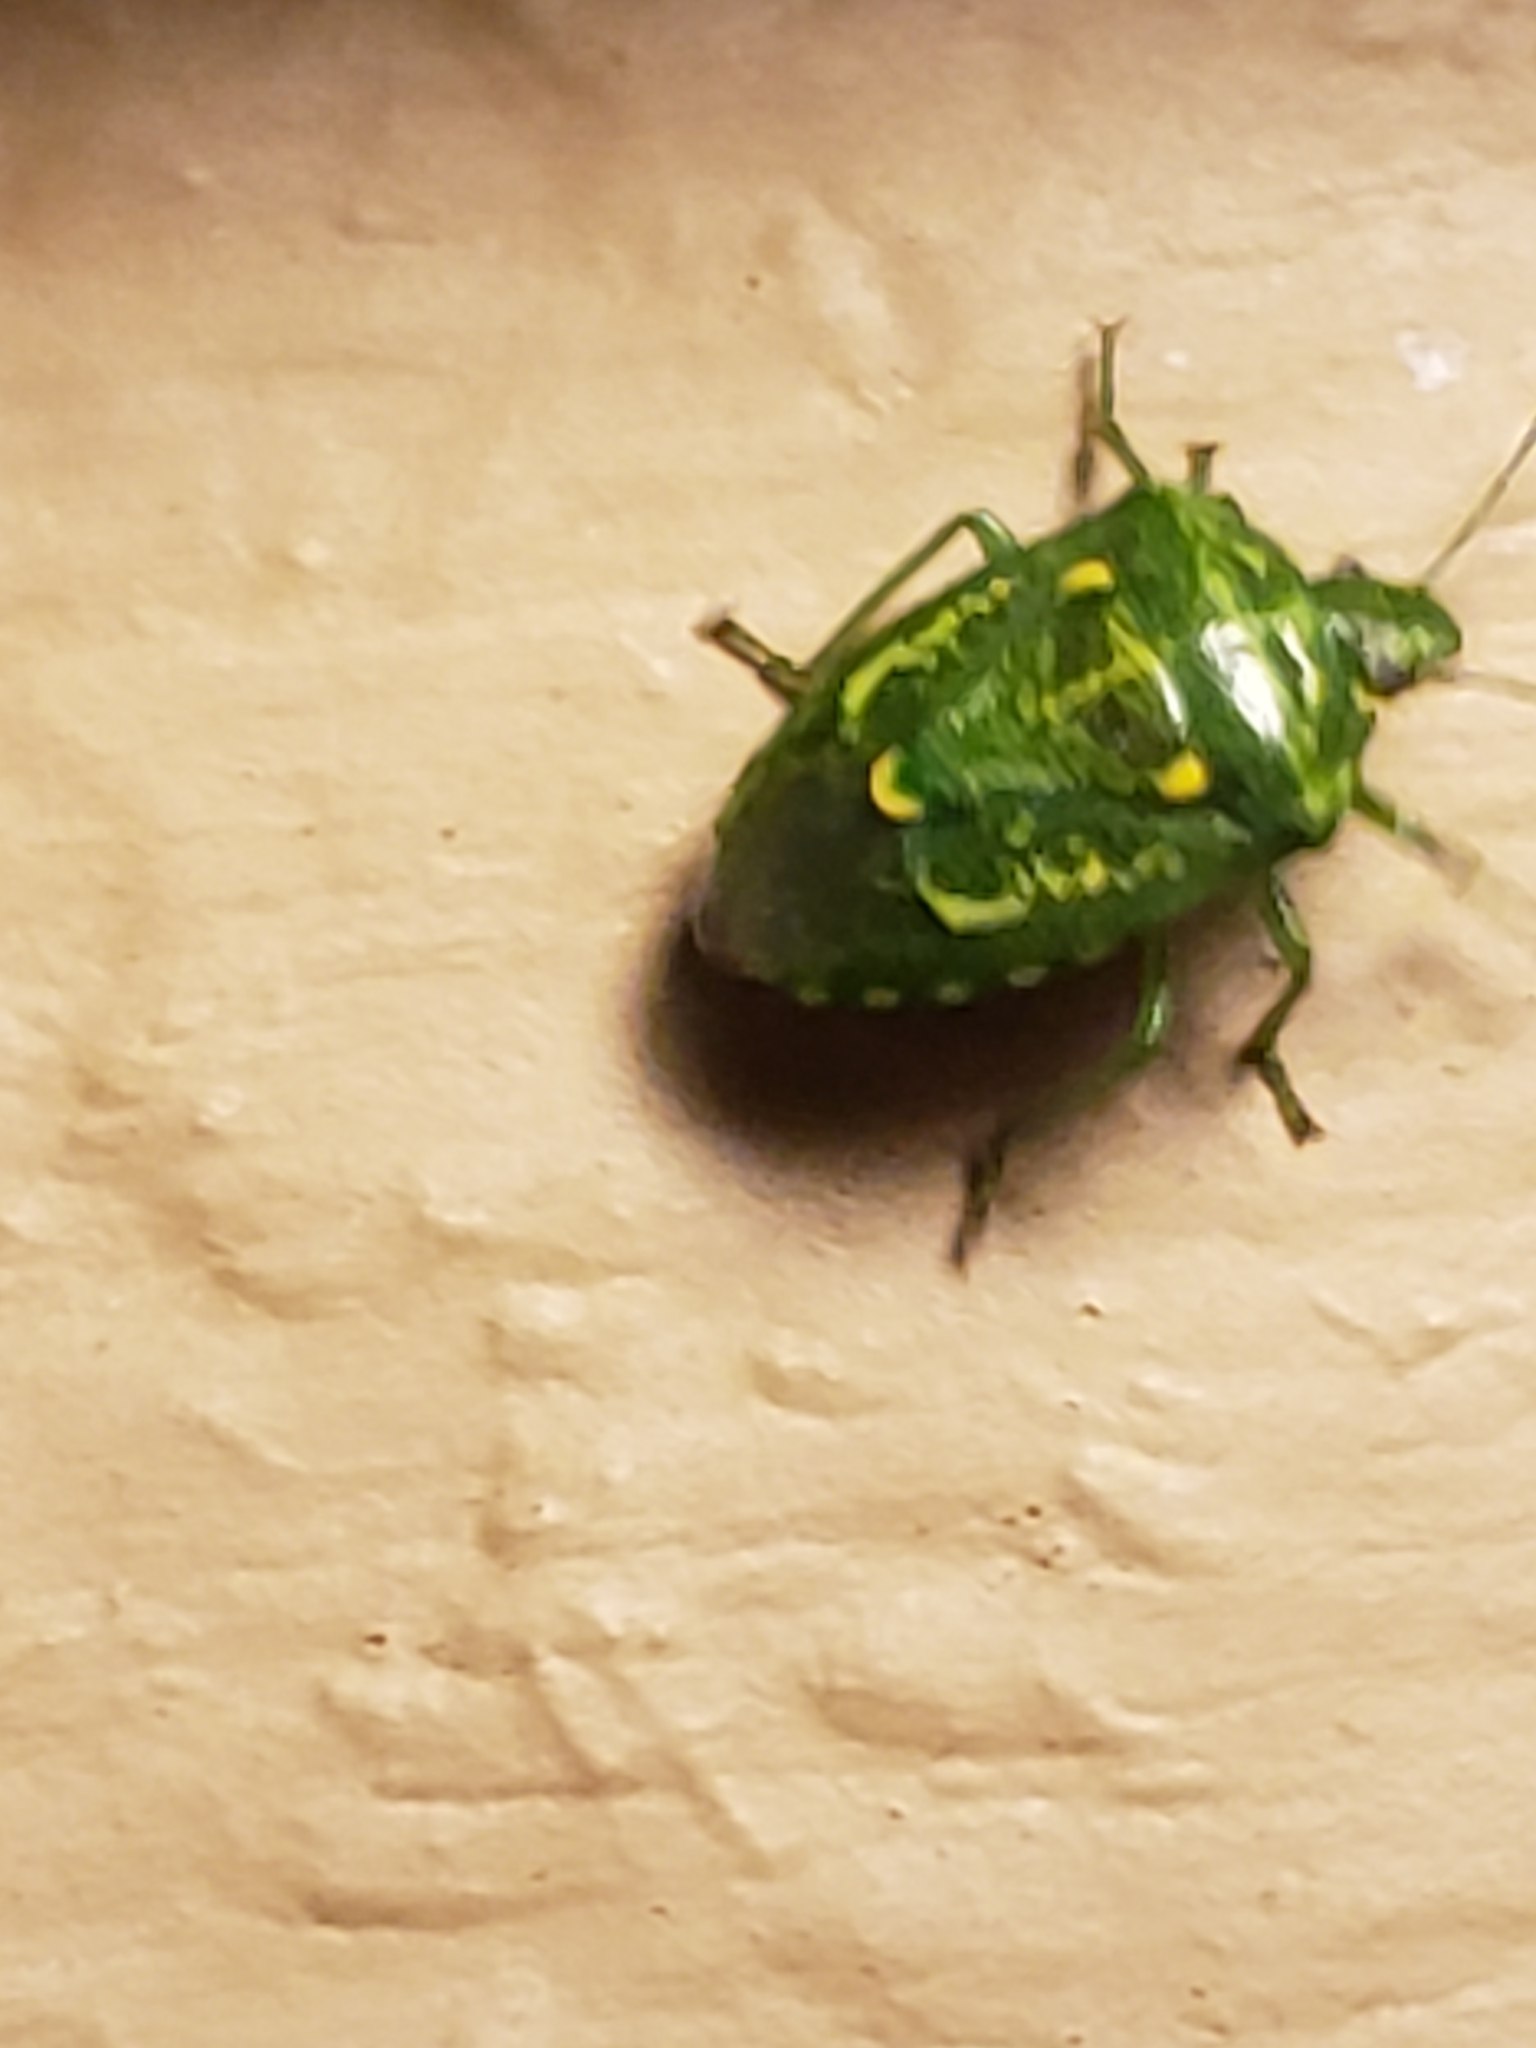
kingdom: Animalia
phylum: Arthropoda
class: Insecta
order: Hemiptera
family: Pentatomidae
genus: Banasa
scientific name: Banasa euchlora
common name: Cedar berry bug
